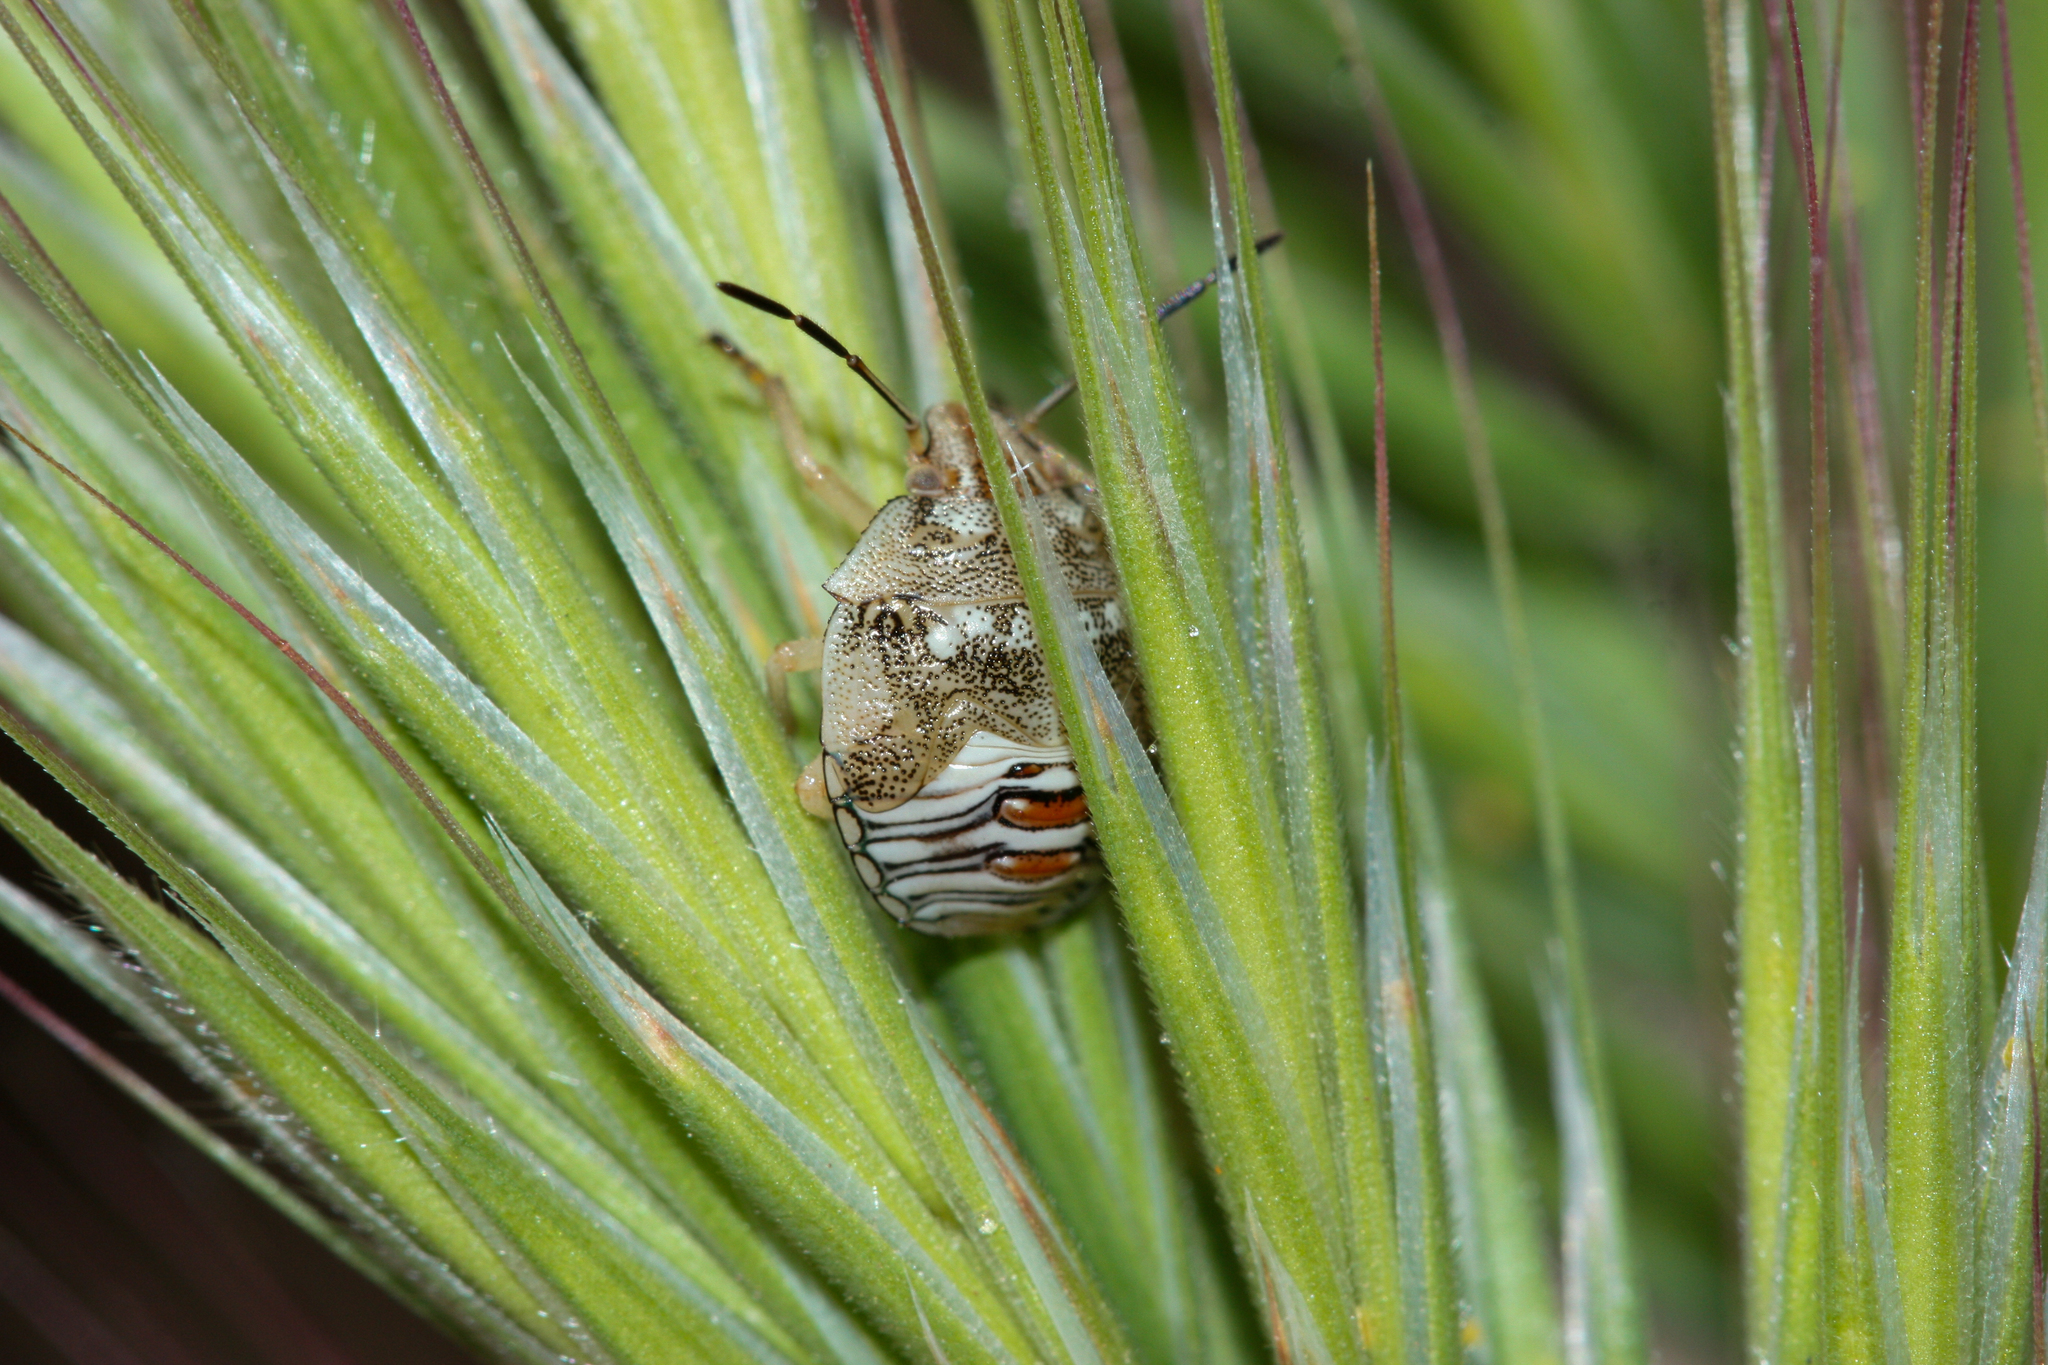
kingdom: Animalia
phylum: Arthropoda
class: Insecta
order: Hemiptera
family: Pentatomidae
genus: Thyanta
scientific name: Thyanta accerra
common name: Stink bug
